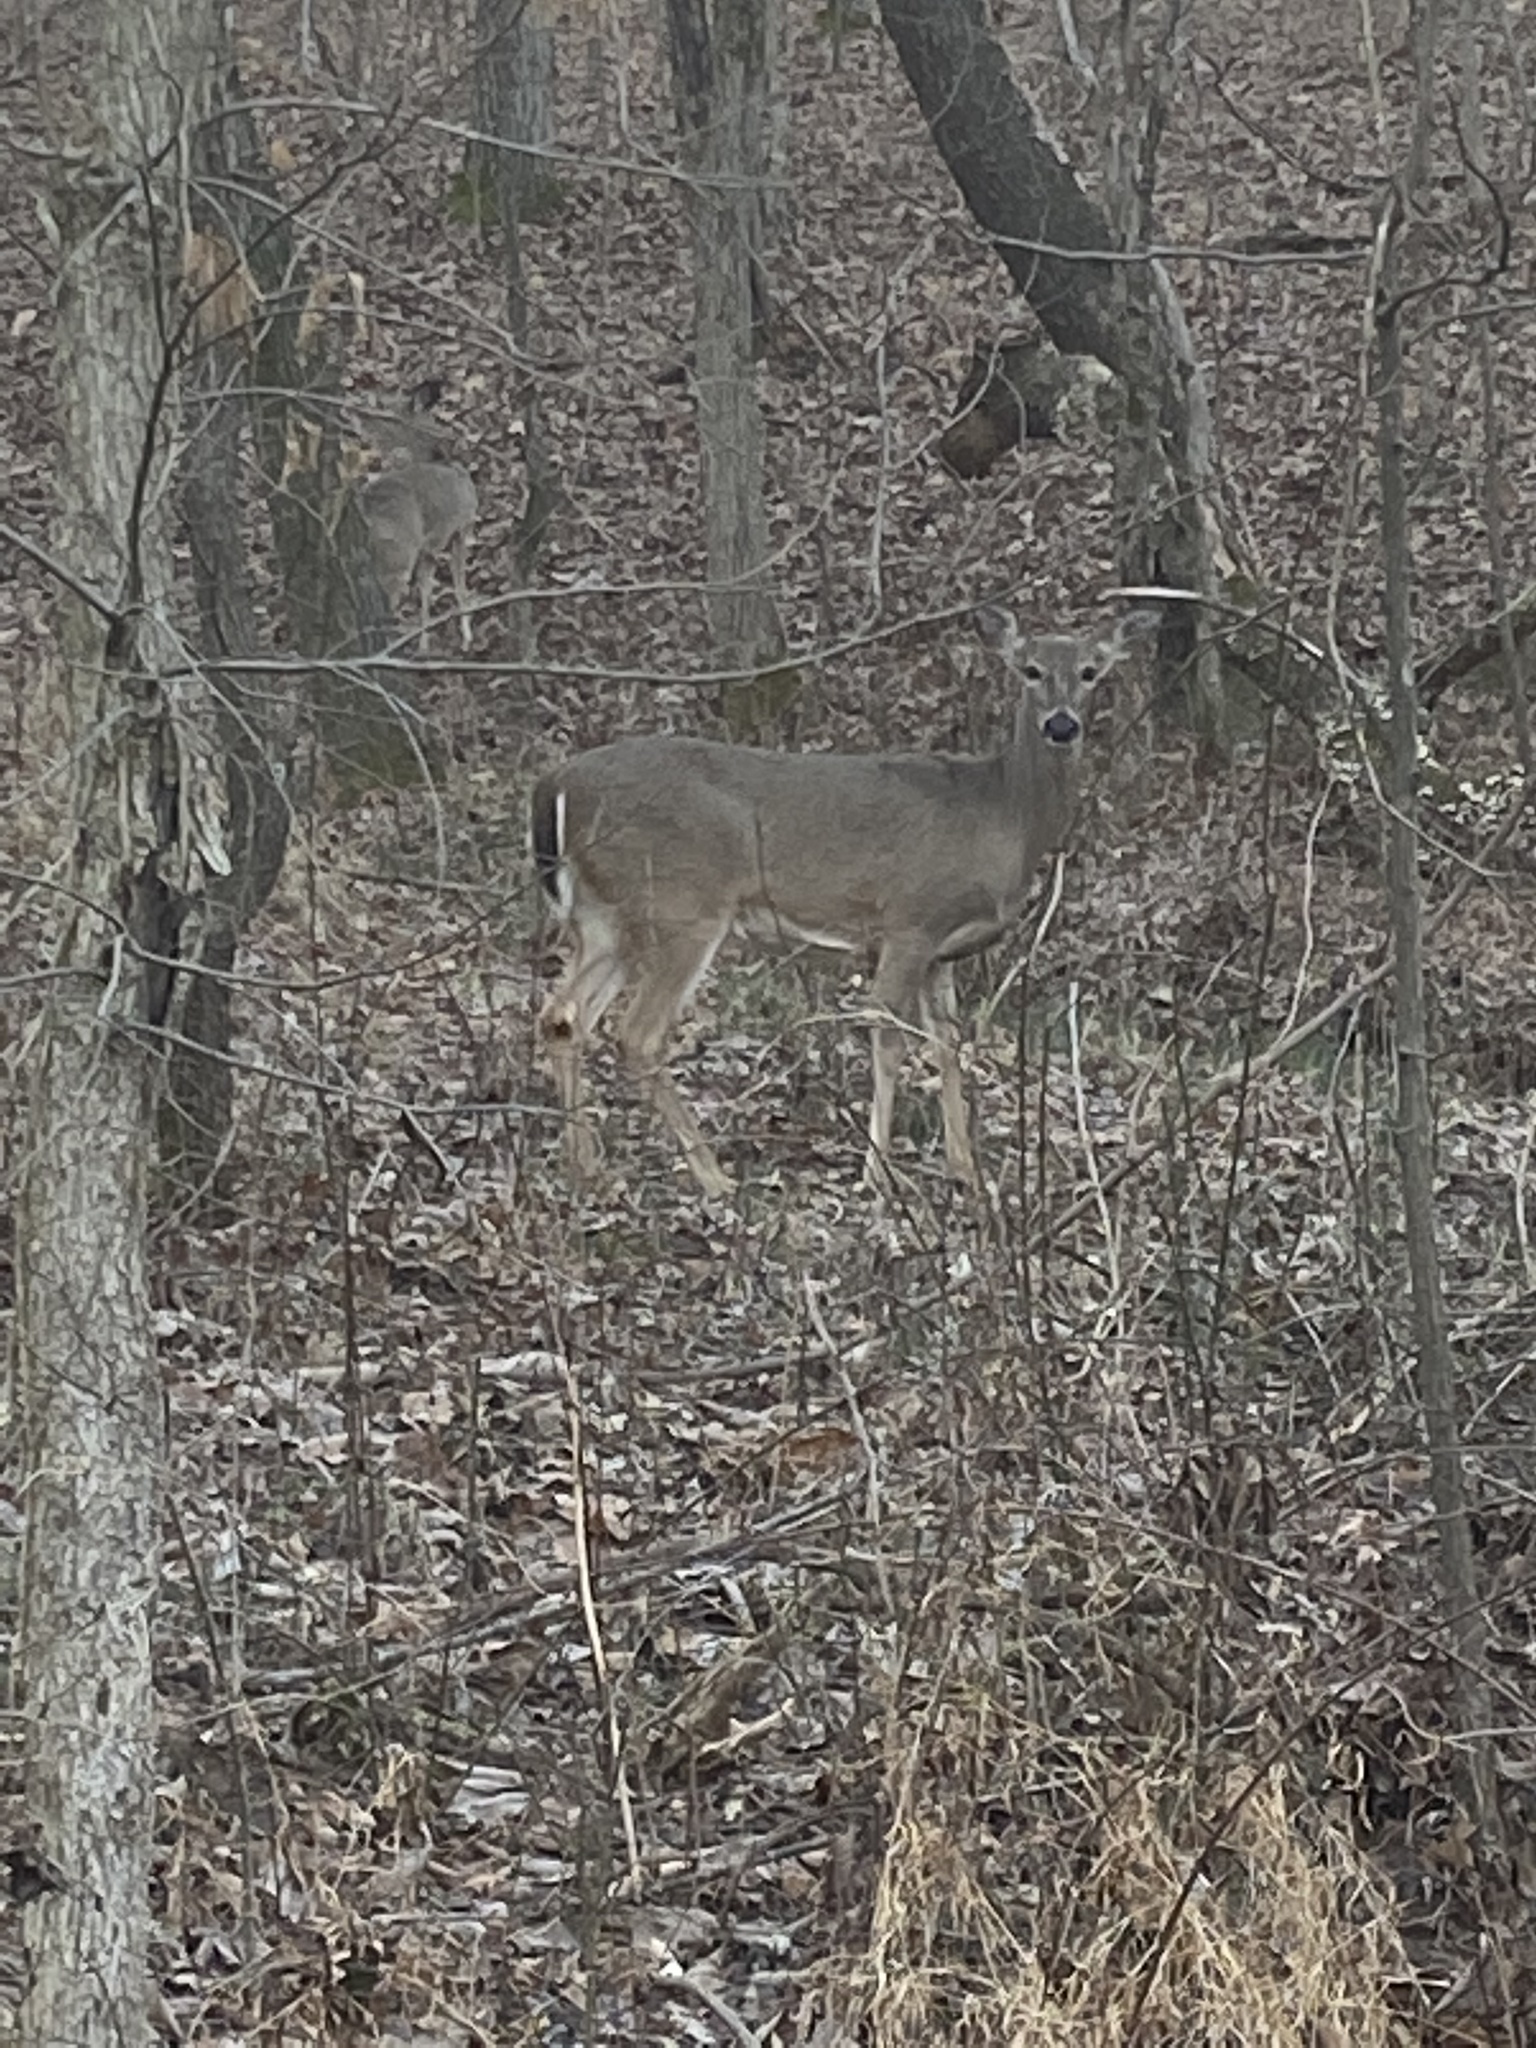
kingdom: Animalia
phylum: Chordata
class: Mammalia
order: Artiodactyla
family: Cervidae
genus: Odocoileus
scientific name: Odocoileus virginianus
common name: White-tailed deer
